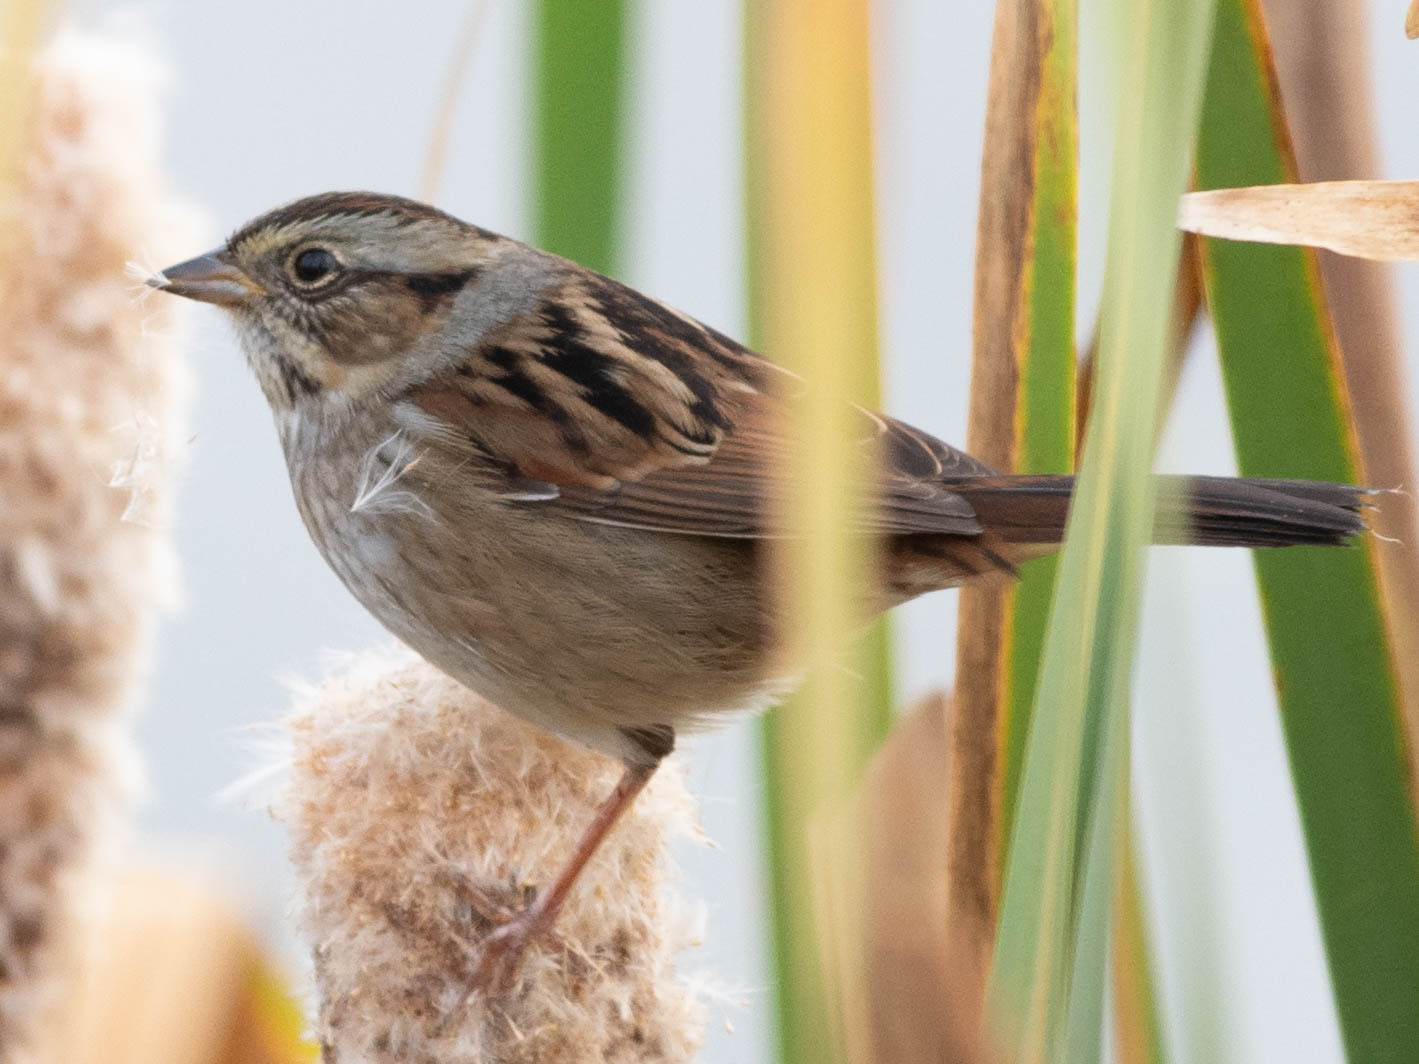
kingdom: Animalia
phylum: Chordata
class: Aves
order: Passeriformes
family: Passerellidae
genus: Melospiza
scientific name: Melospiza georgiana
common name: Swamp sparrow
